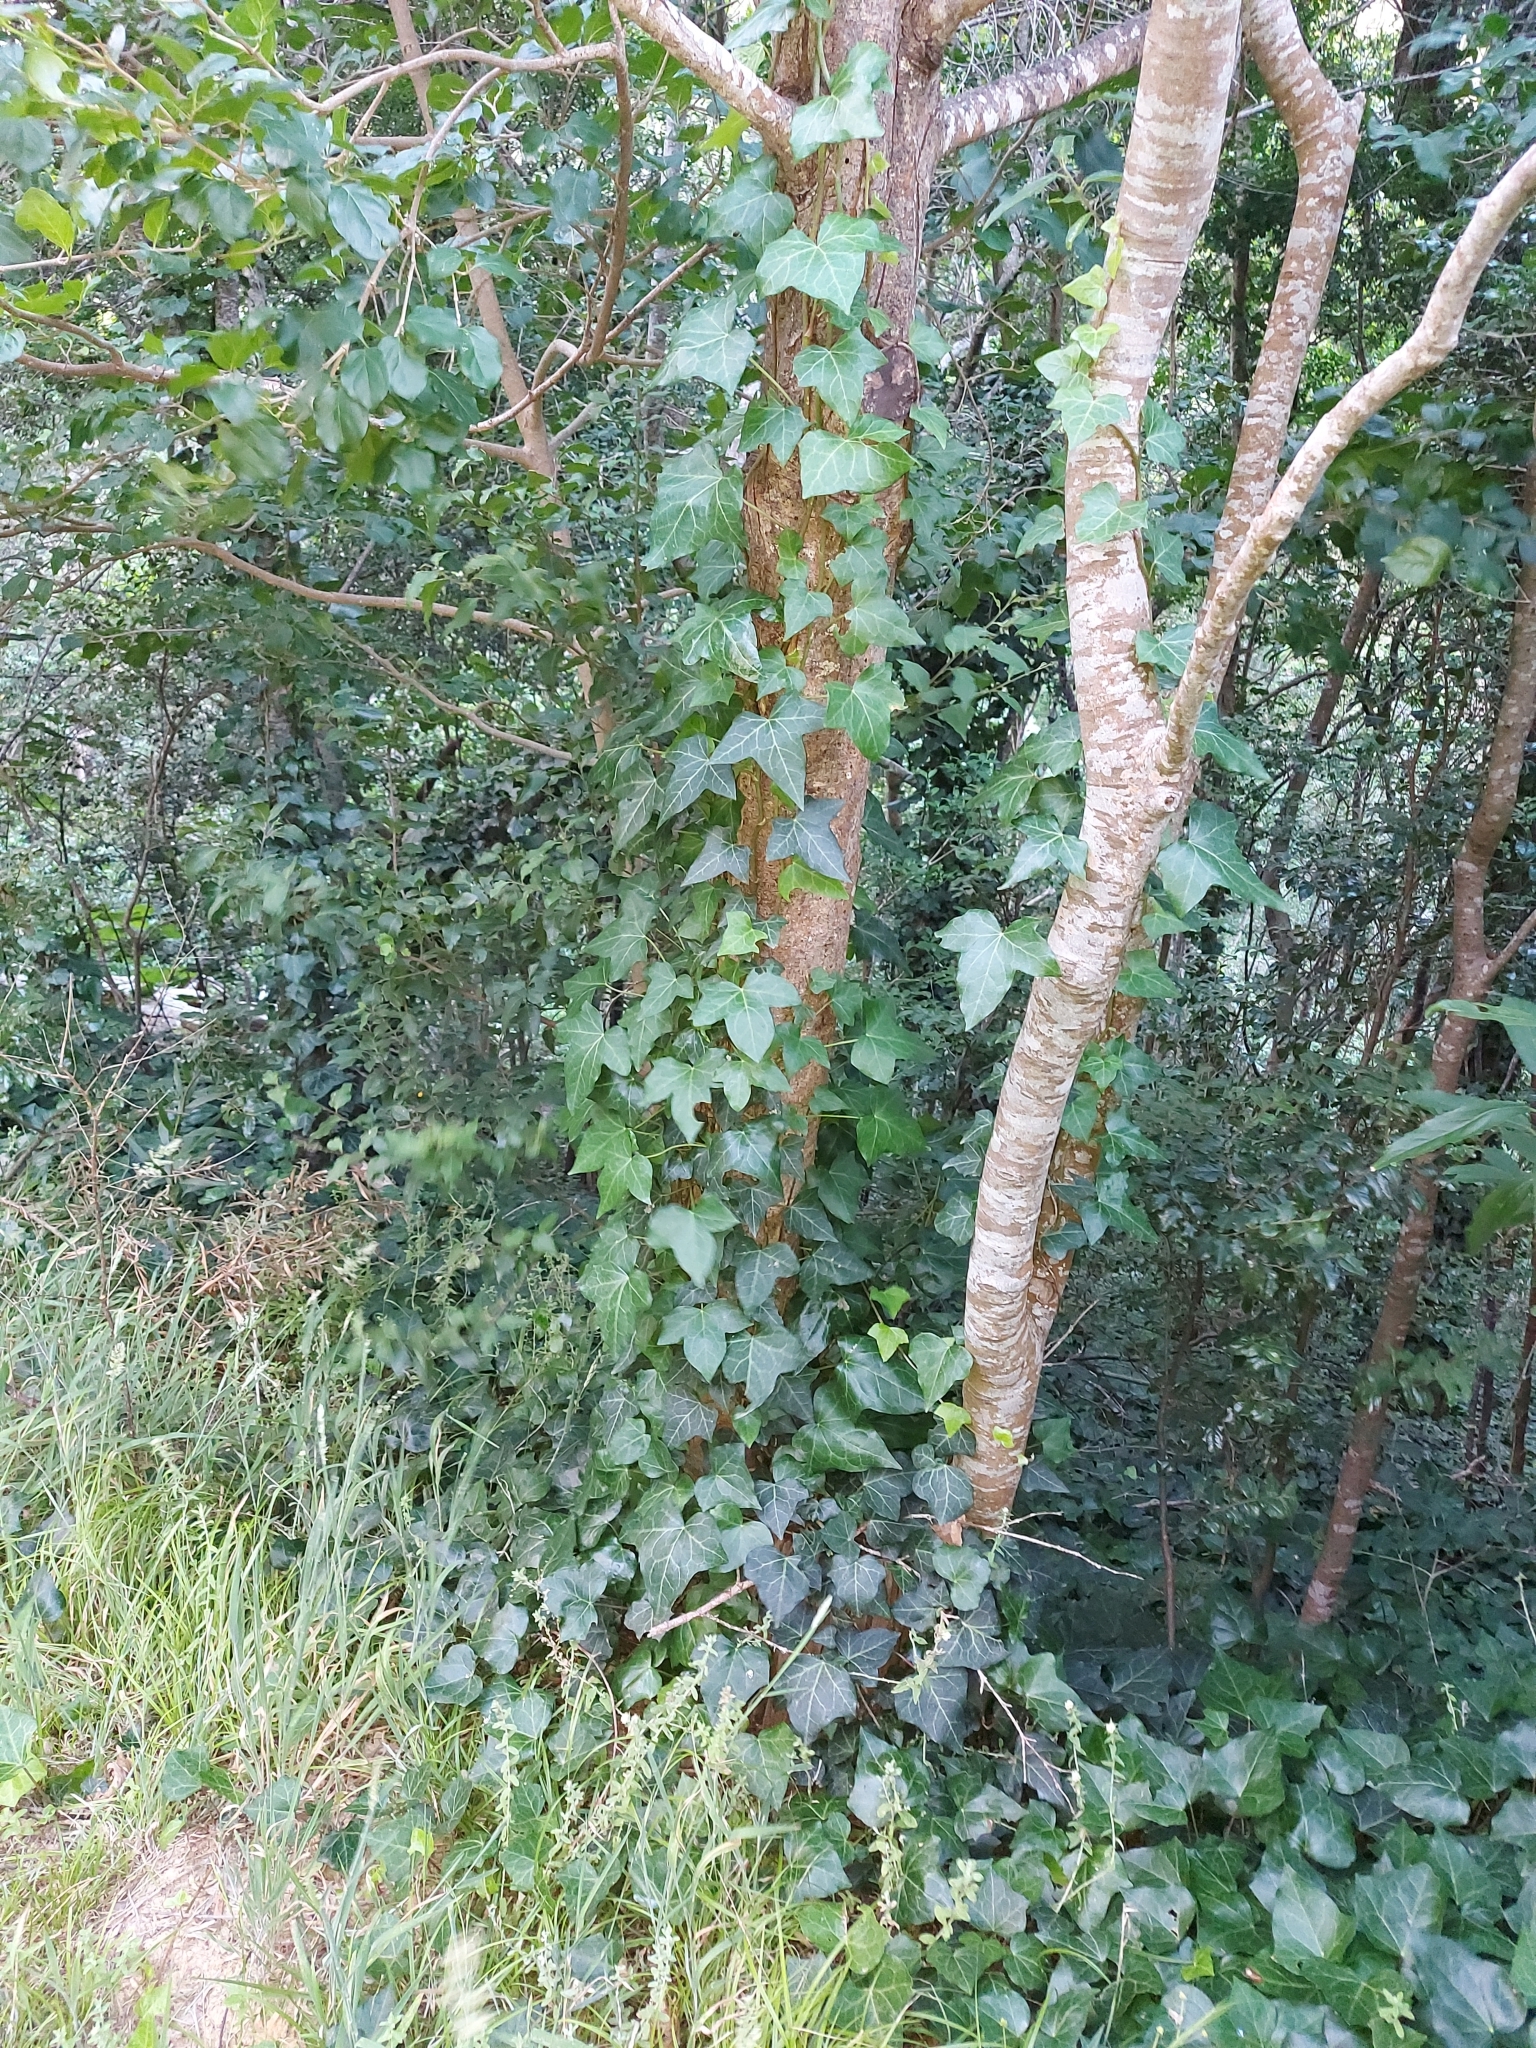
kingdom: Plantae
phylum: Tracheophyta
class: Magnoliopsida
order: Apiales
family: Araliaceae
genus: Hedera
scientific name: Hedera helix
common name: Ivy
